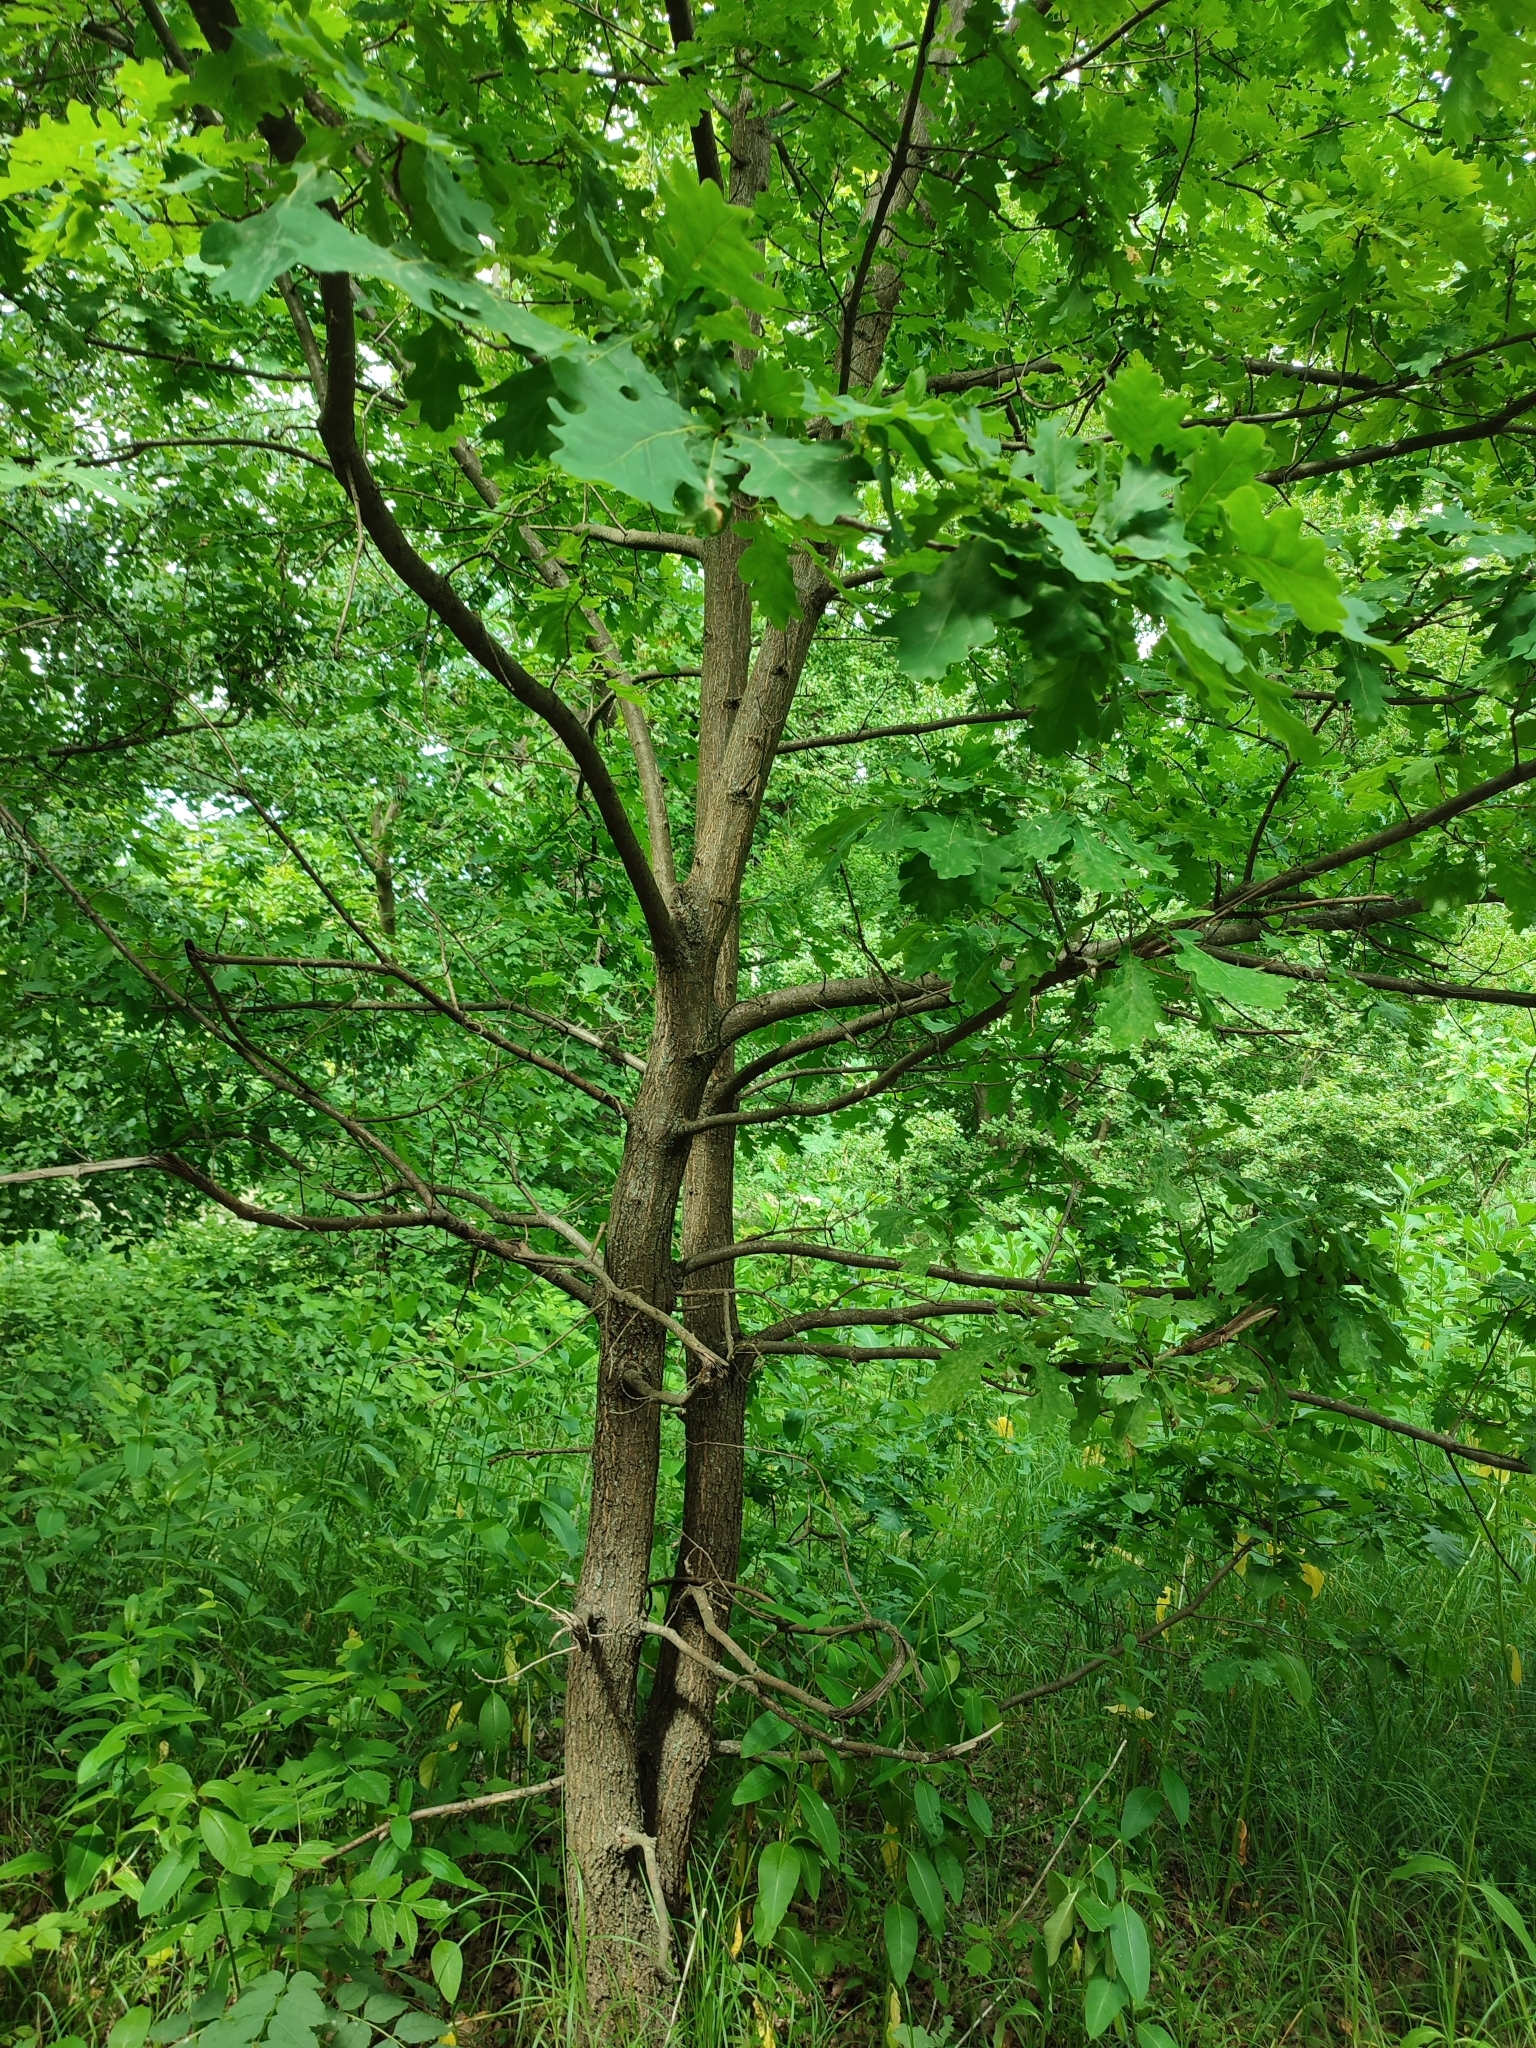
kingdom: Plantae
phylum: Tracheophyta
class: Magnoliopsida
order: Fagales
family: Fagaceae
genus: Quercus
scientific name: Quercus robur
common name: Pedunculate oak
